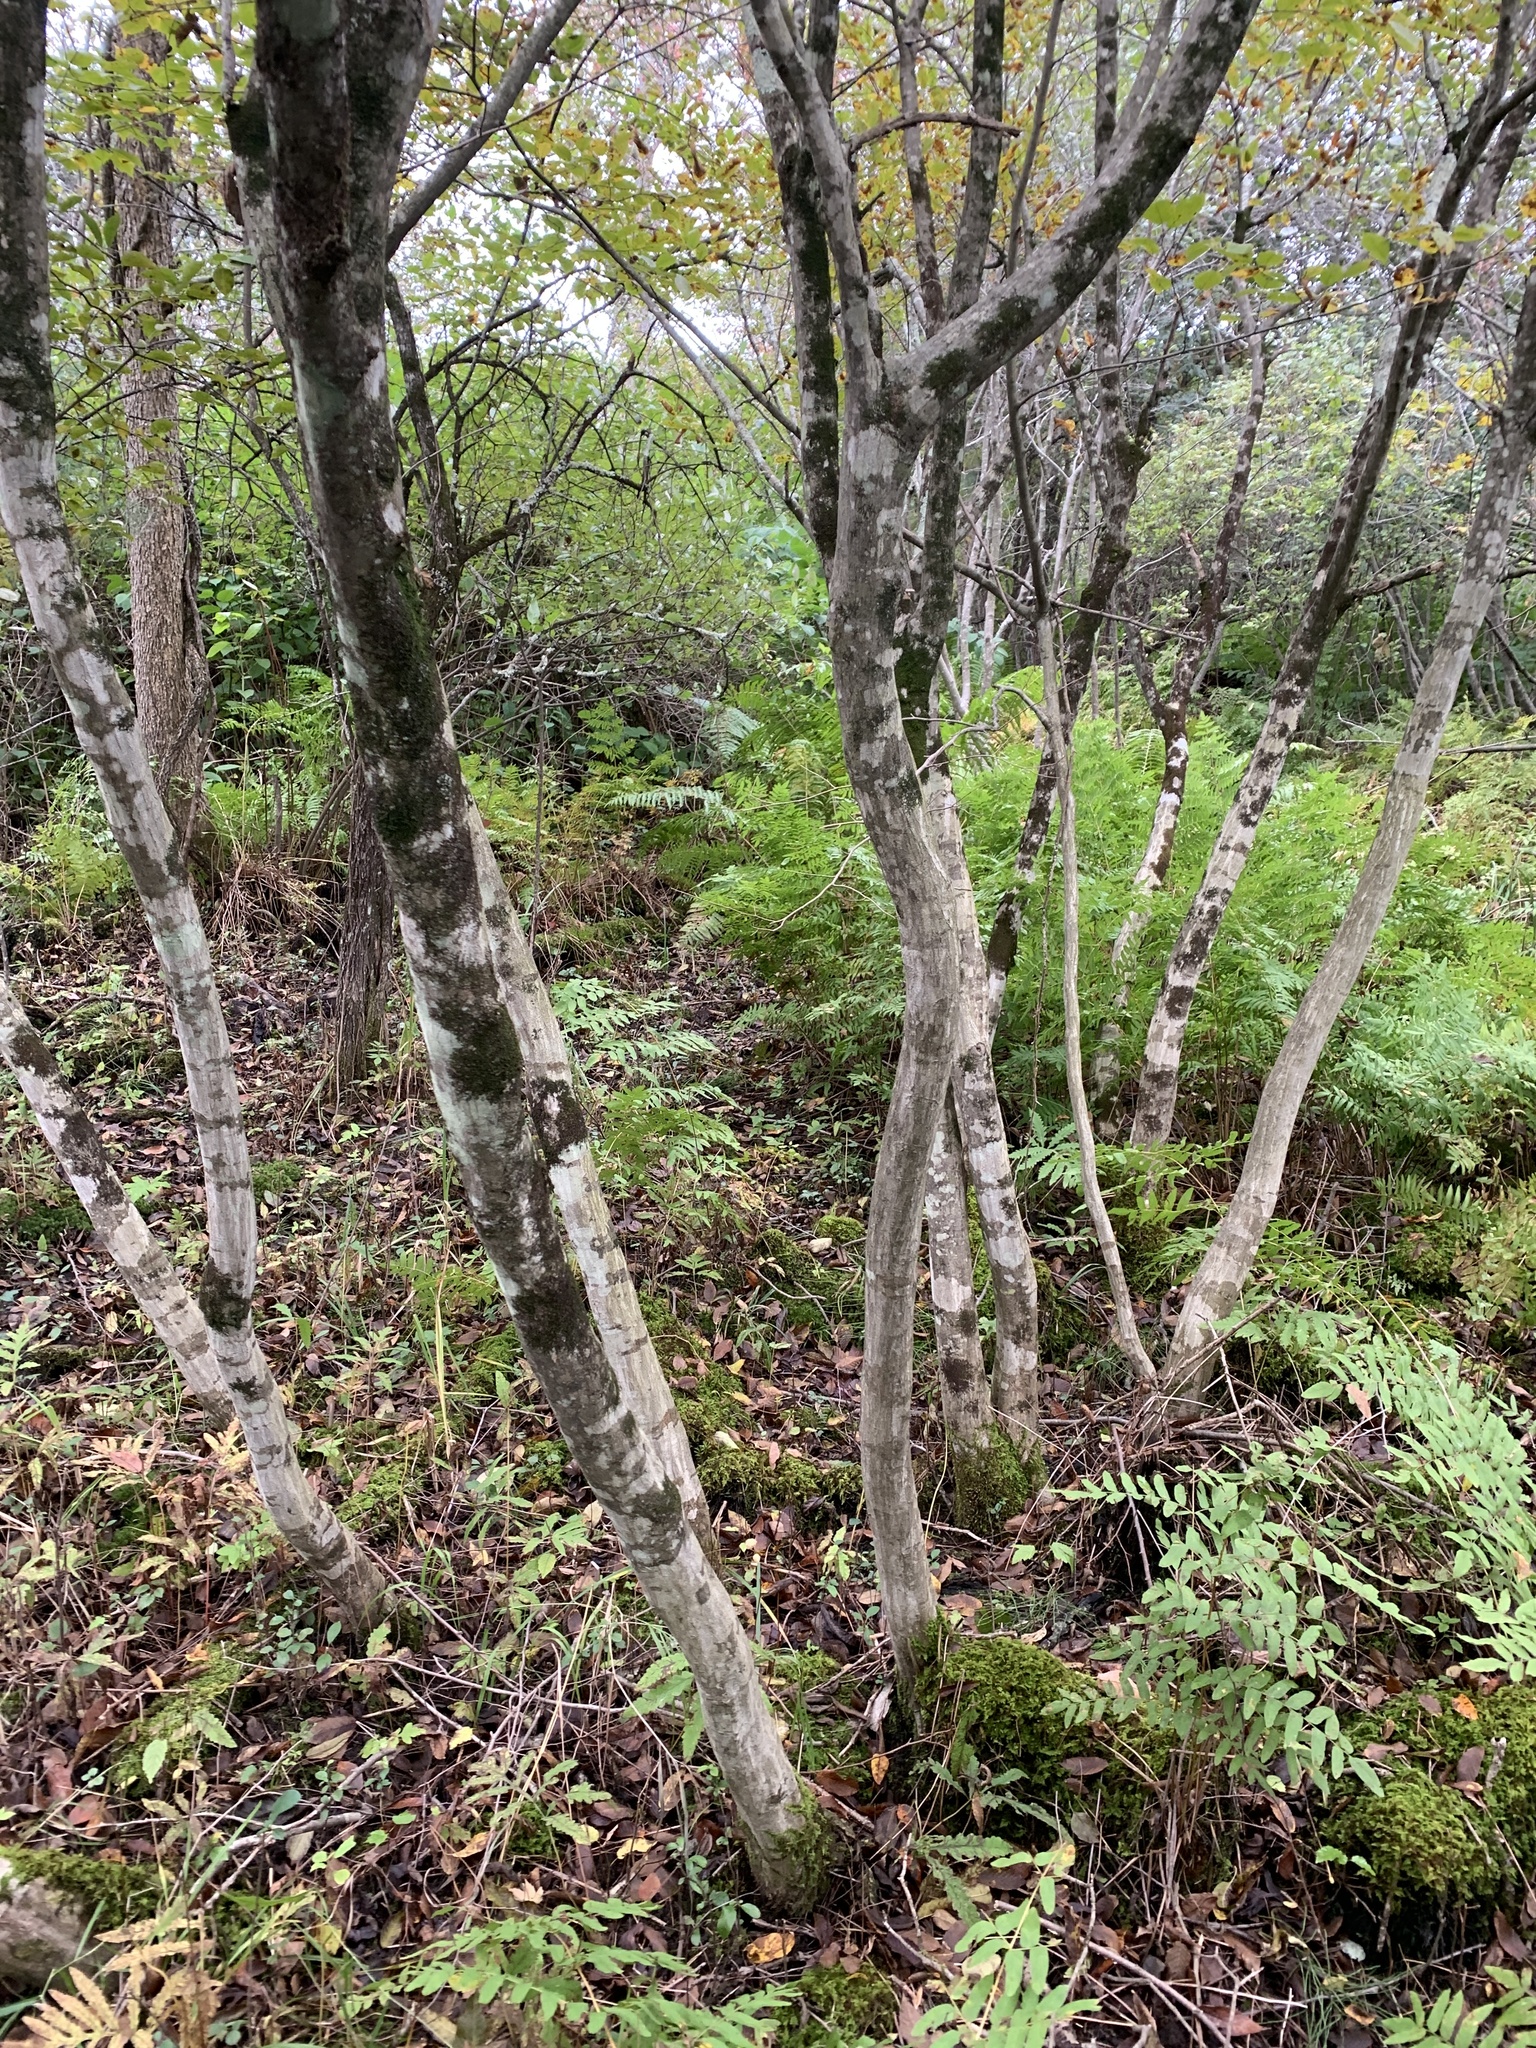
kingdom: Plantae
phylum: Tracheophyta
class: Magnoliopsida
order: Fagales
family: Betulaceae
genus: Carpinus
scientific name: Carpinus caroliniana
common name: American hornbeam
